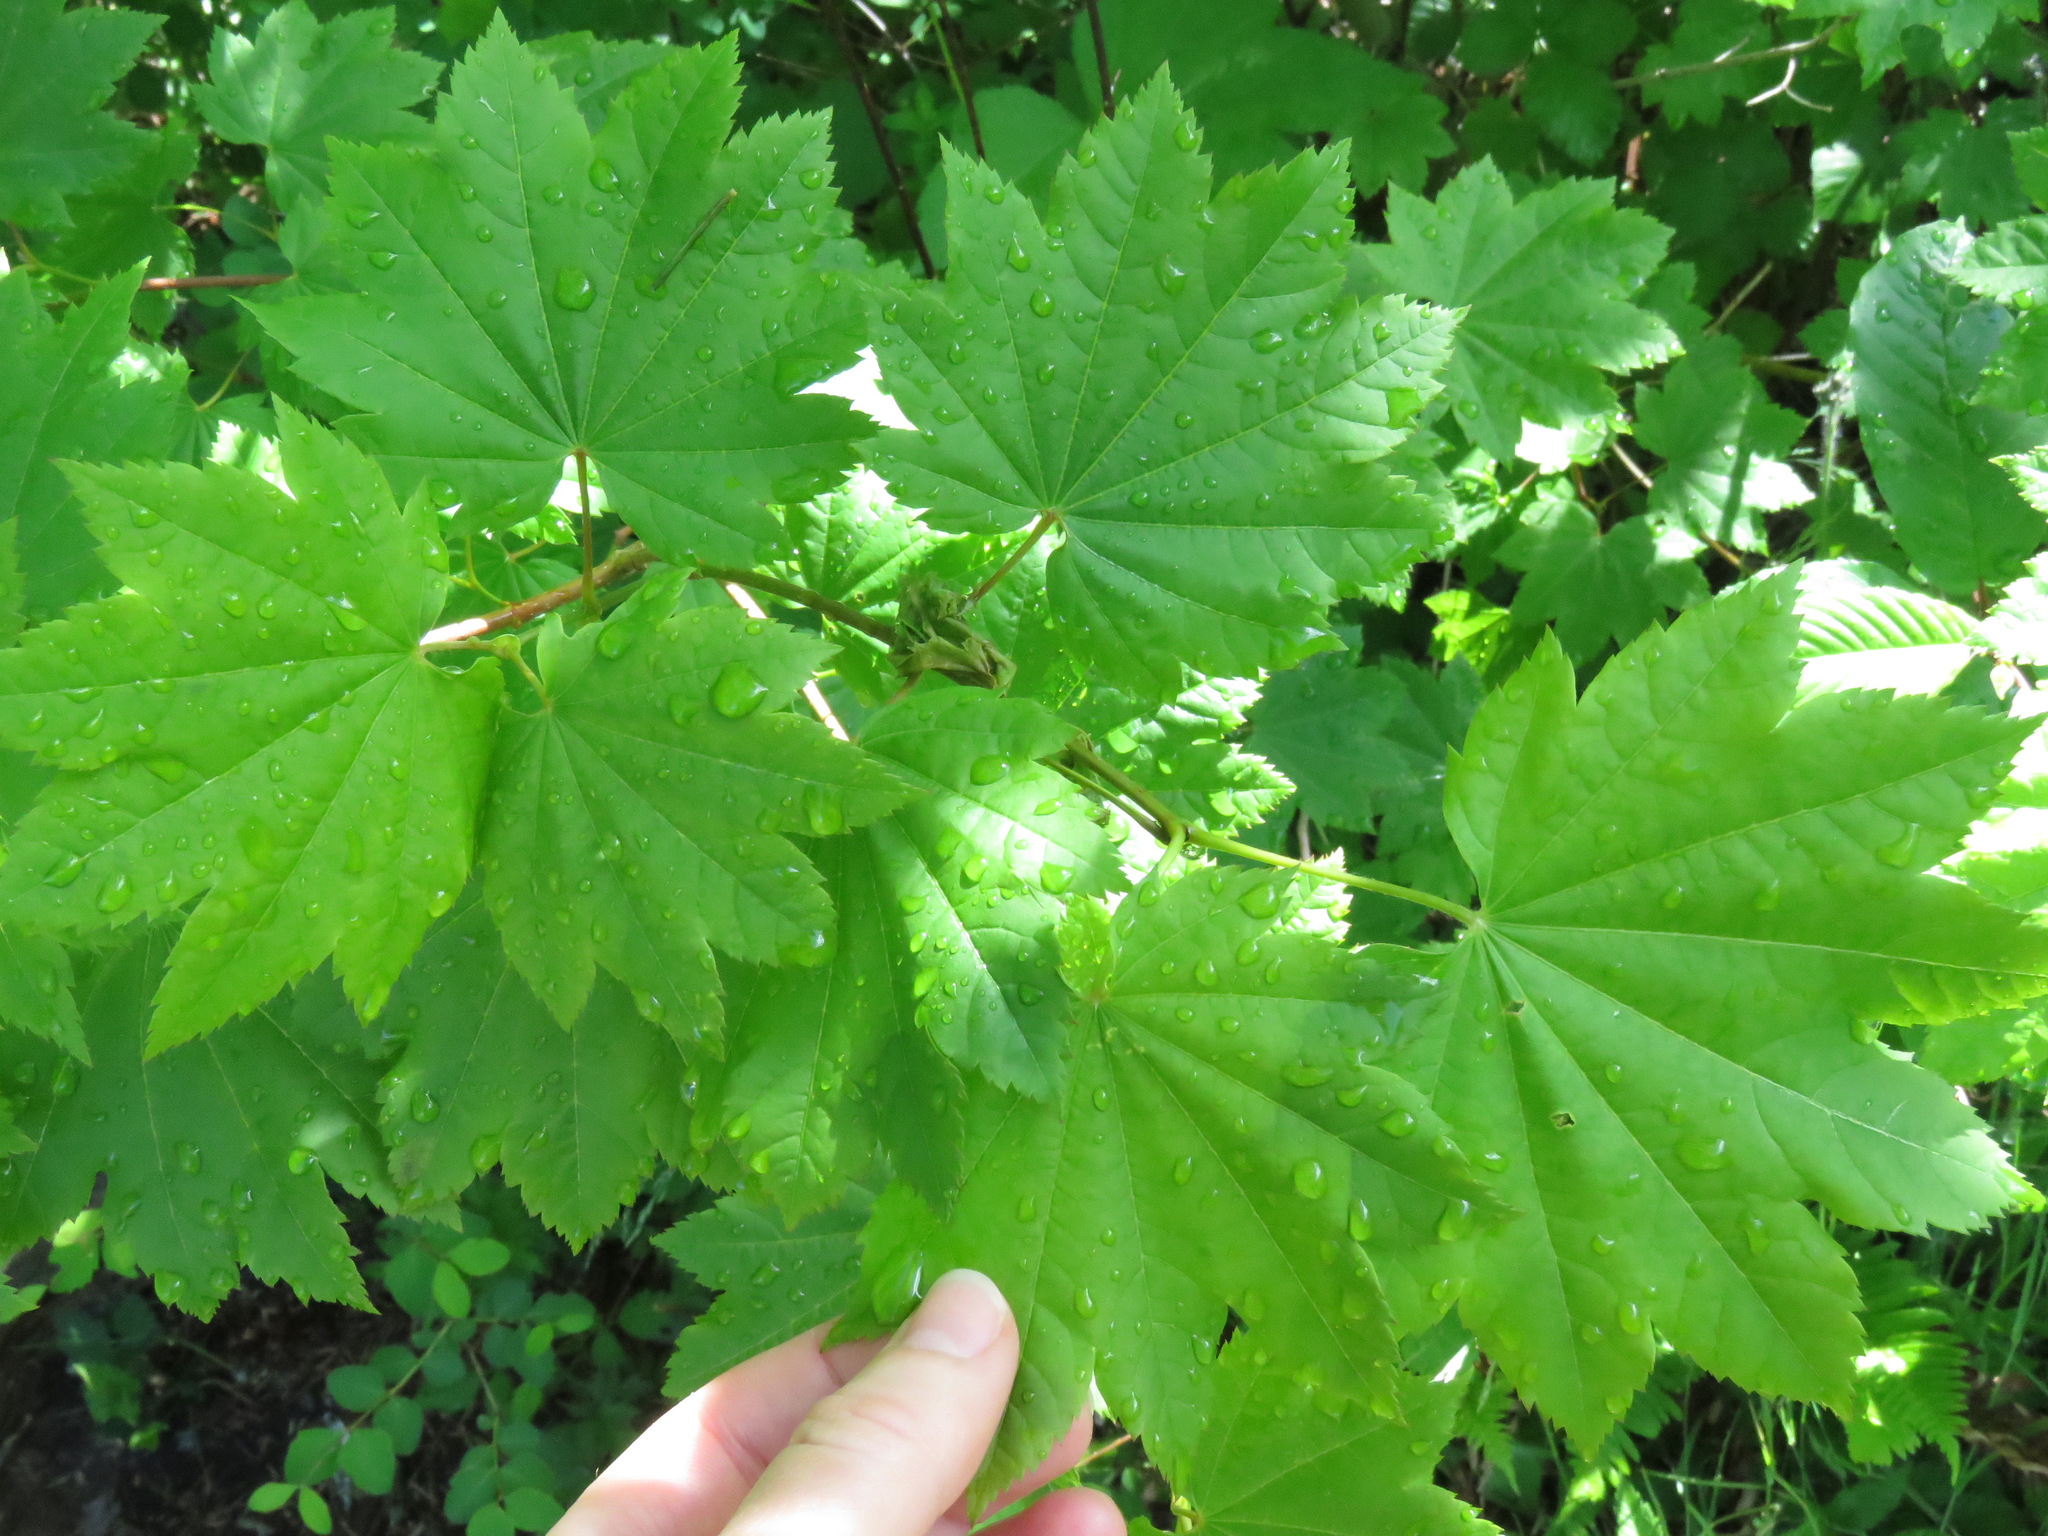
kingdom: Plantae
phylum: Tracheophyta
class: Magnoliopsida
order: Sapindales
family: Sapindaceae
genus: Acer
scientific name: Acer circinatum
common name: Vine maple
